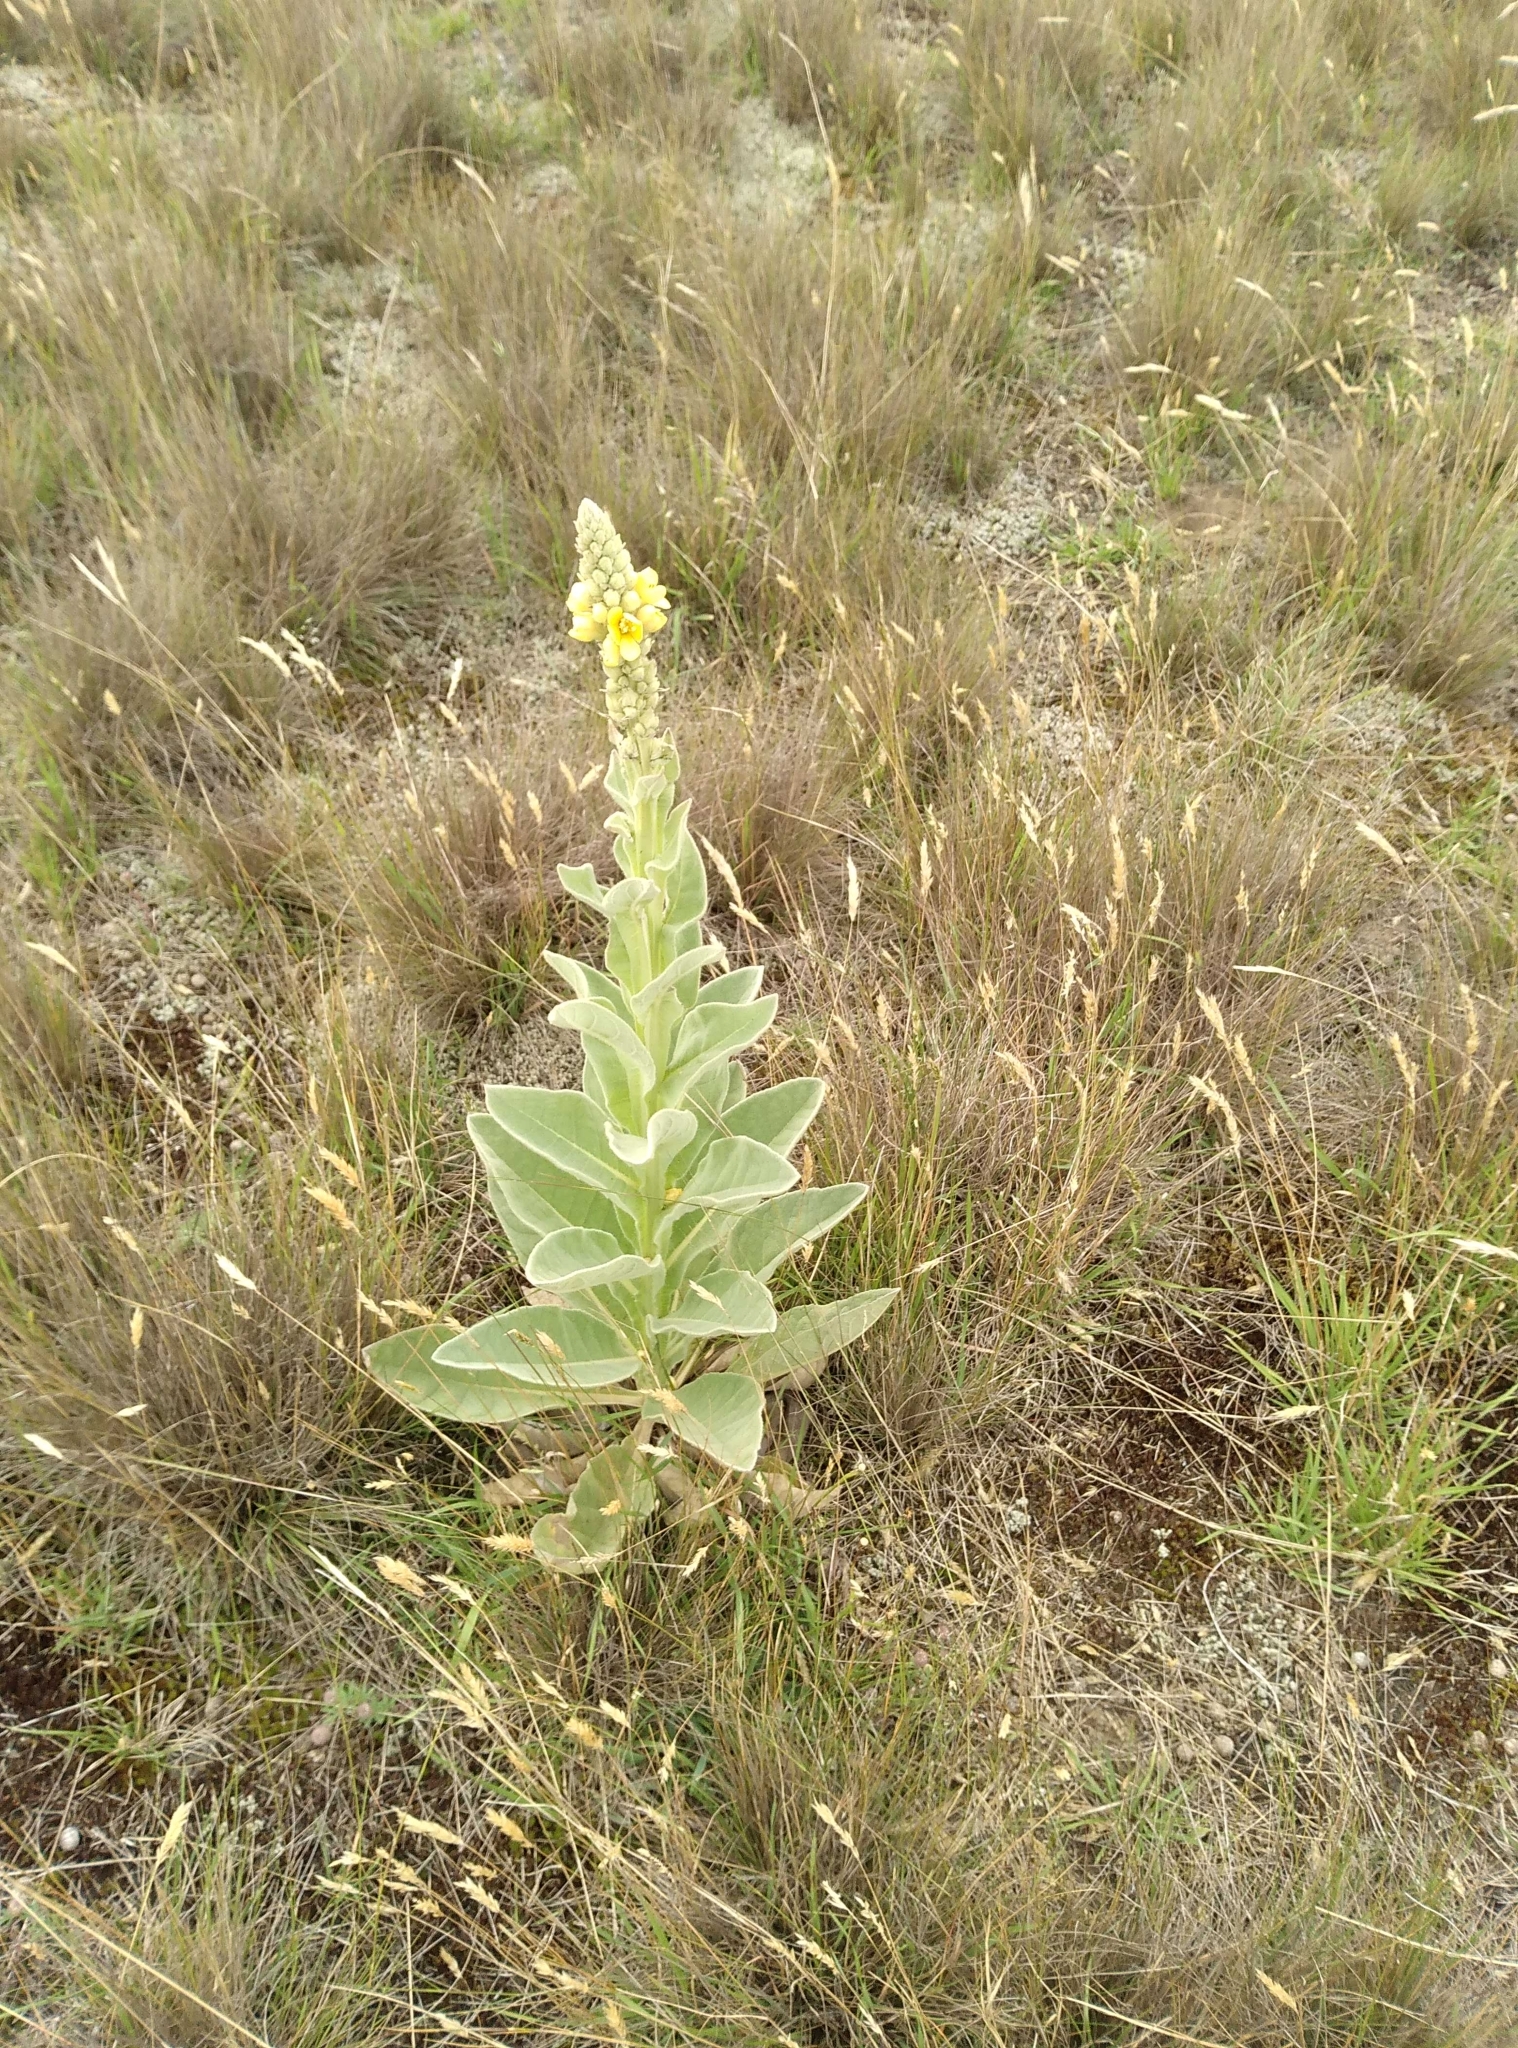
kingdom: Plantae
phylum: Tracheophyta
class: Magnoliopsida
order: Lamiales
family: Scrophulariaceae
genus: Verbascum
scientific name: Verbascum thapsus
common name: Common mullein
